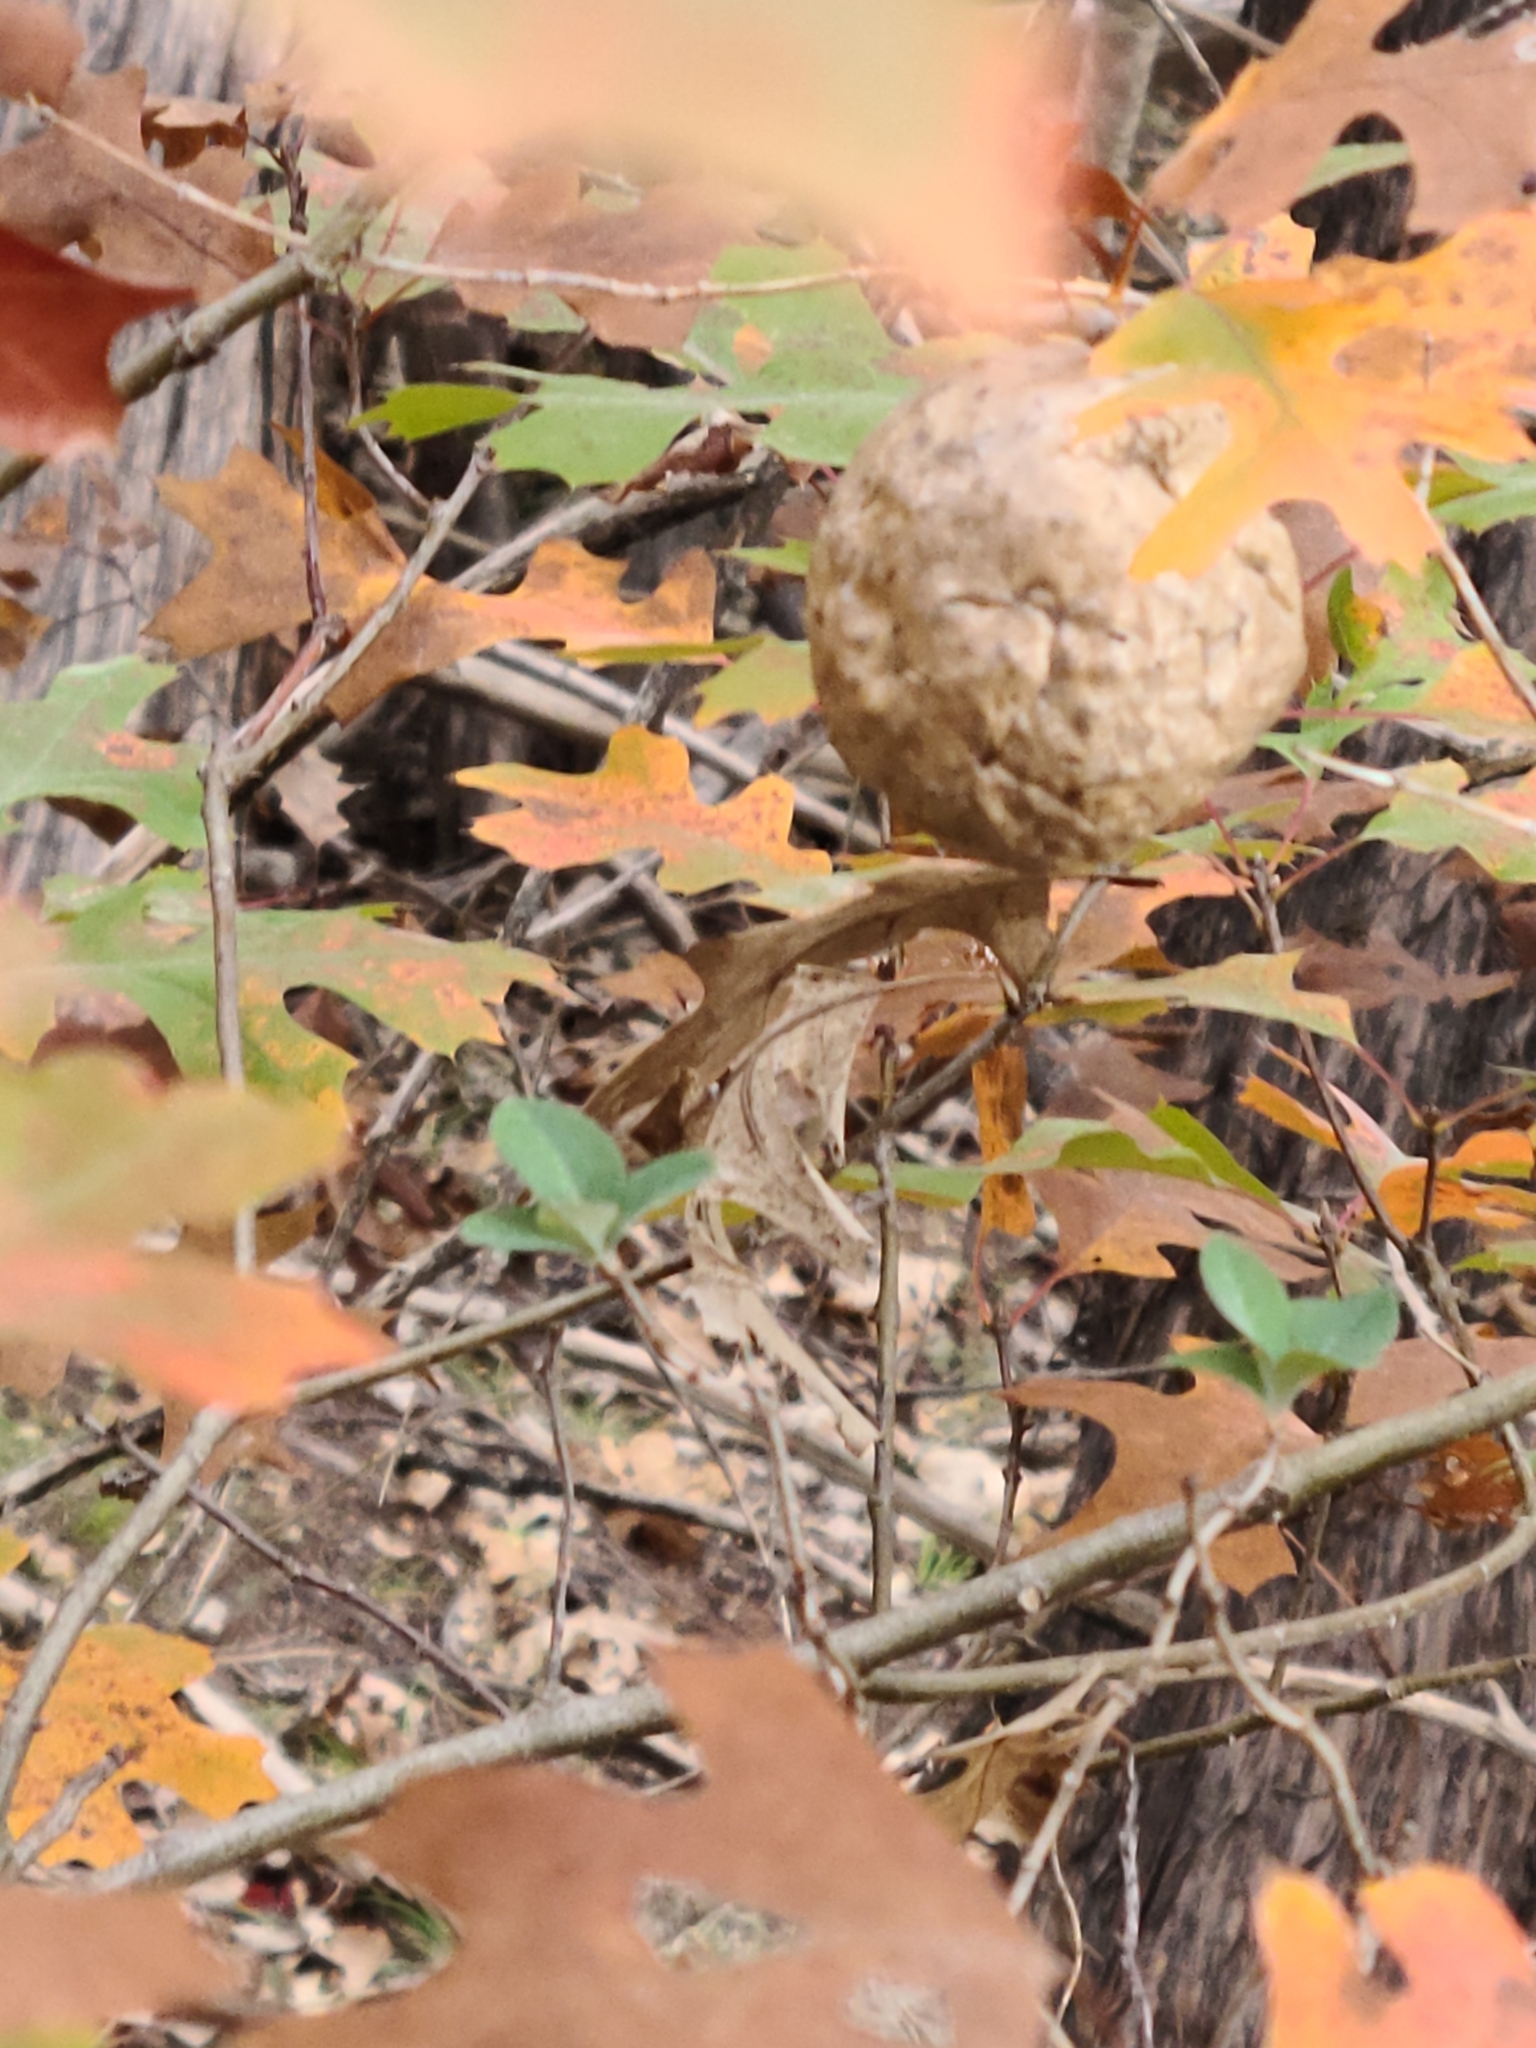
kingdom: Animalia
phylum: Arthropoda
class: Insecta
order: Hymenoptera
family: Cynipidae
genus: Amphibolips
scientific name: Amphibolips
